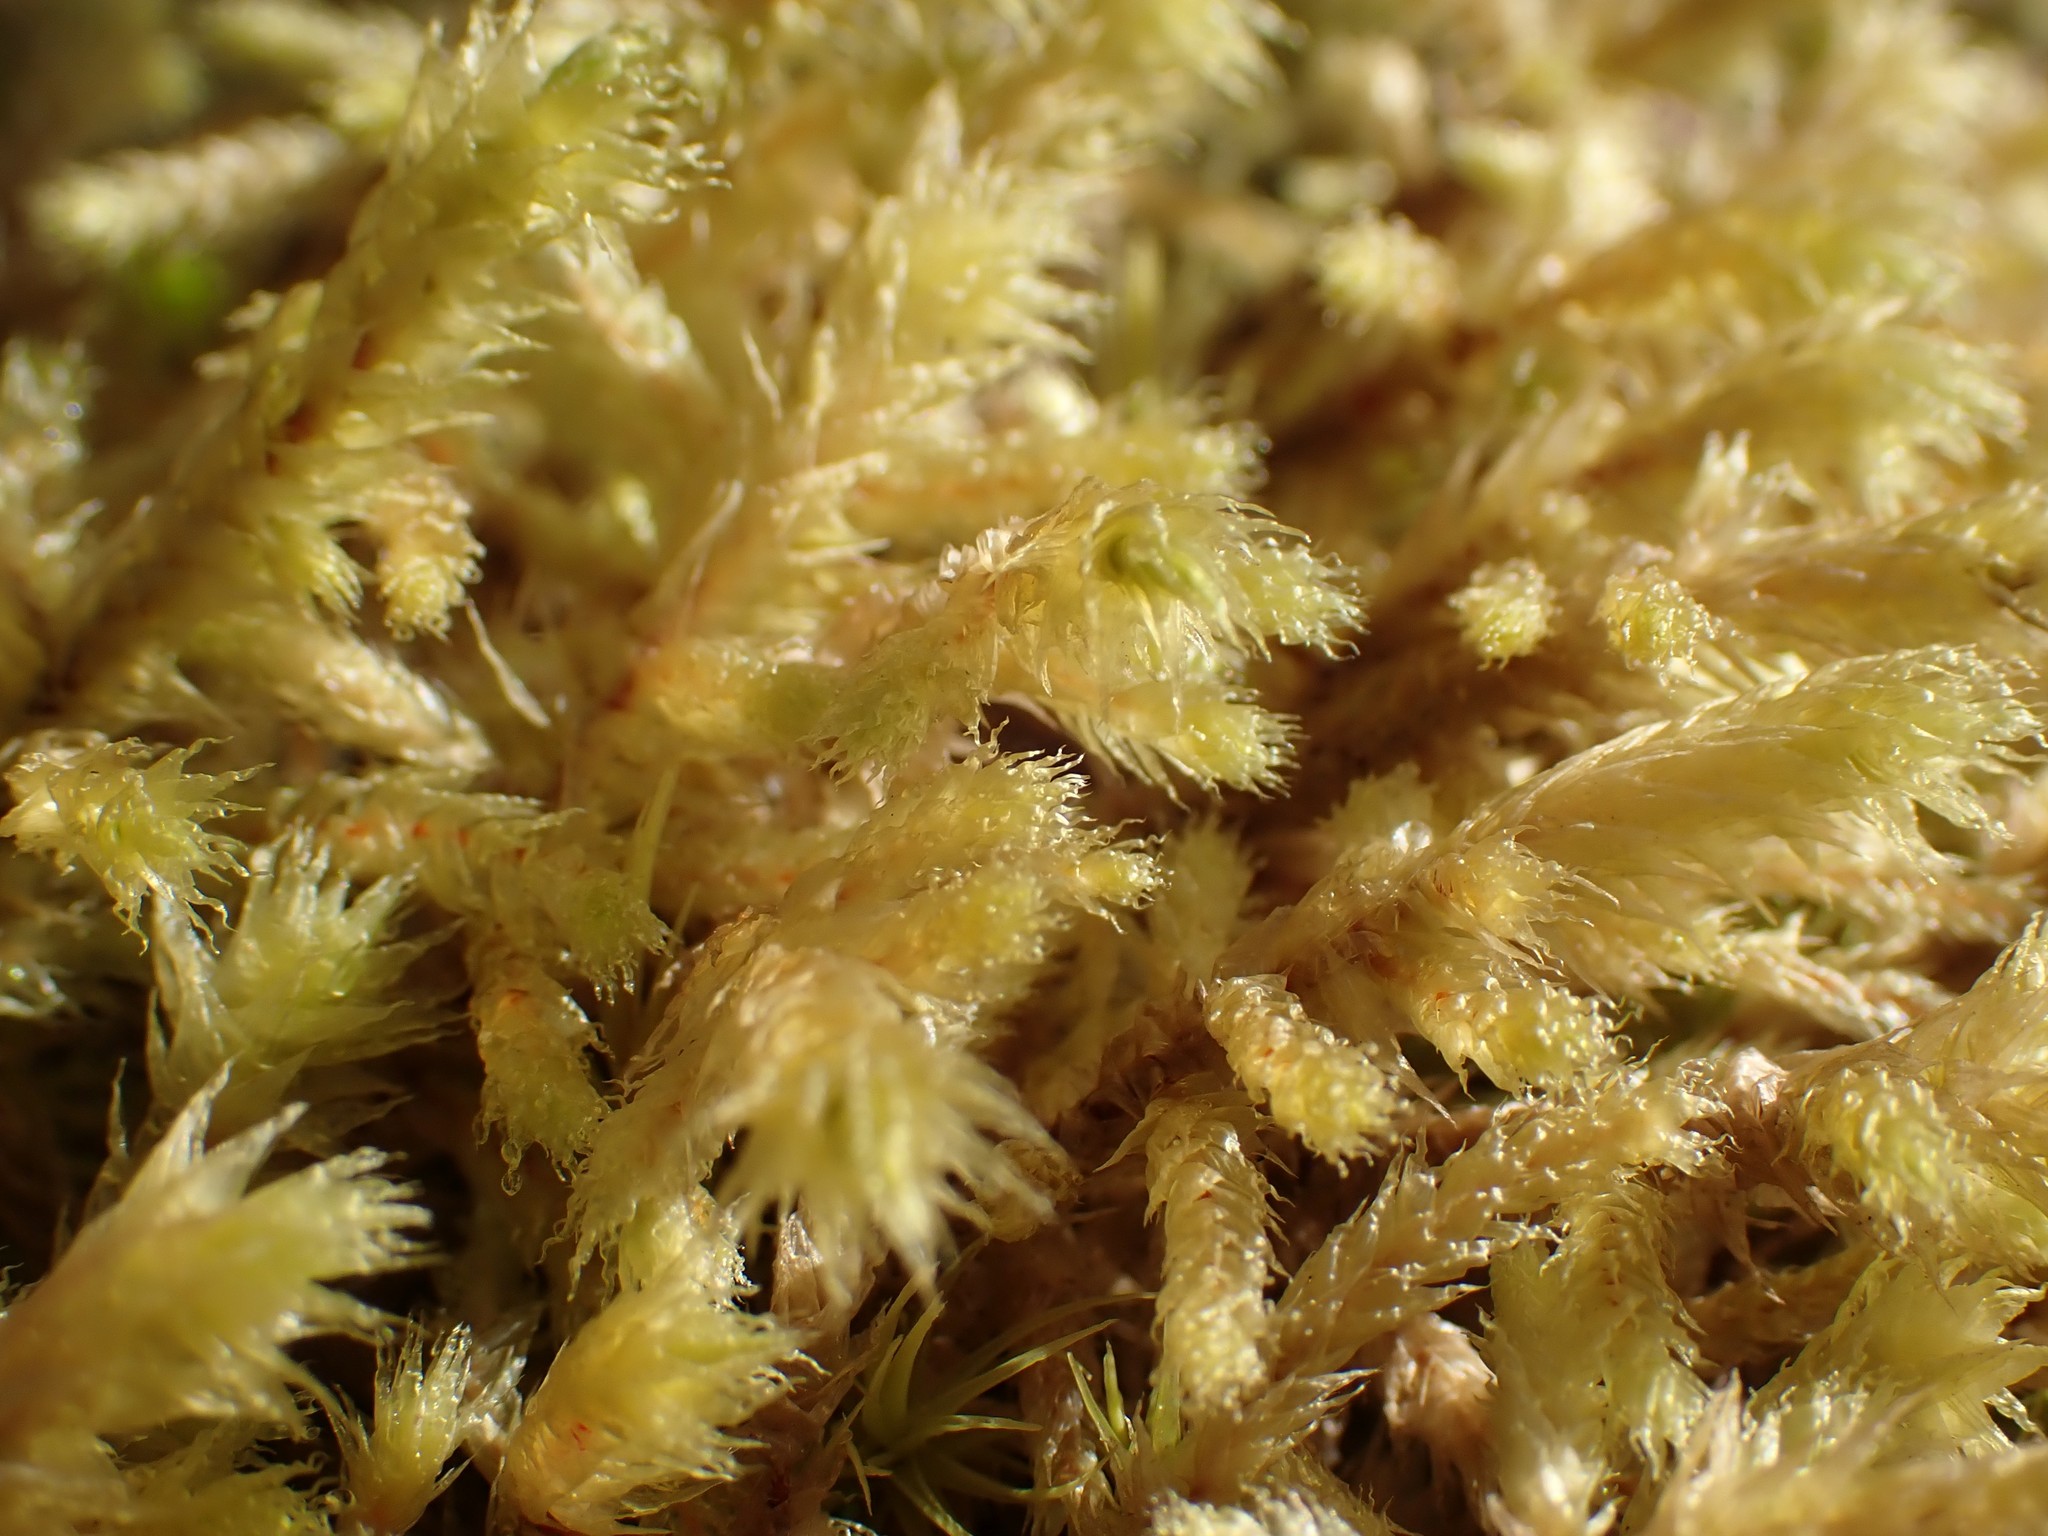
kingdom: Plantae
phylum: Bryophyta
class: Bryopsida
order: Hypnales
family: Hylocomiaceae
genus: Hylocomiadelphus
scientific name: Hylocomiadelphus triquetrus
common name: Rough goose neck moss
